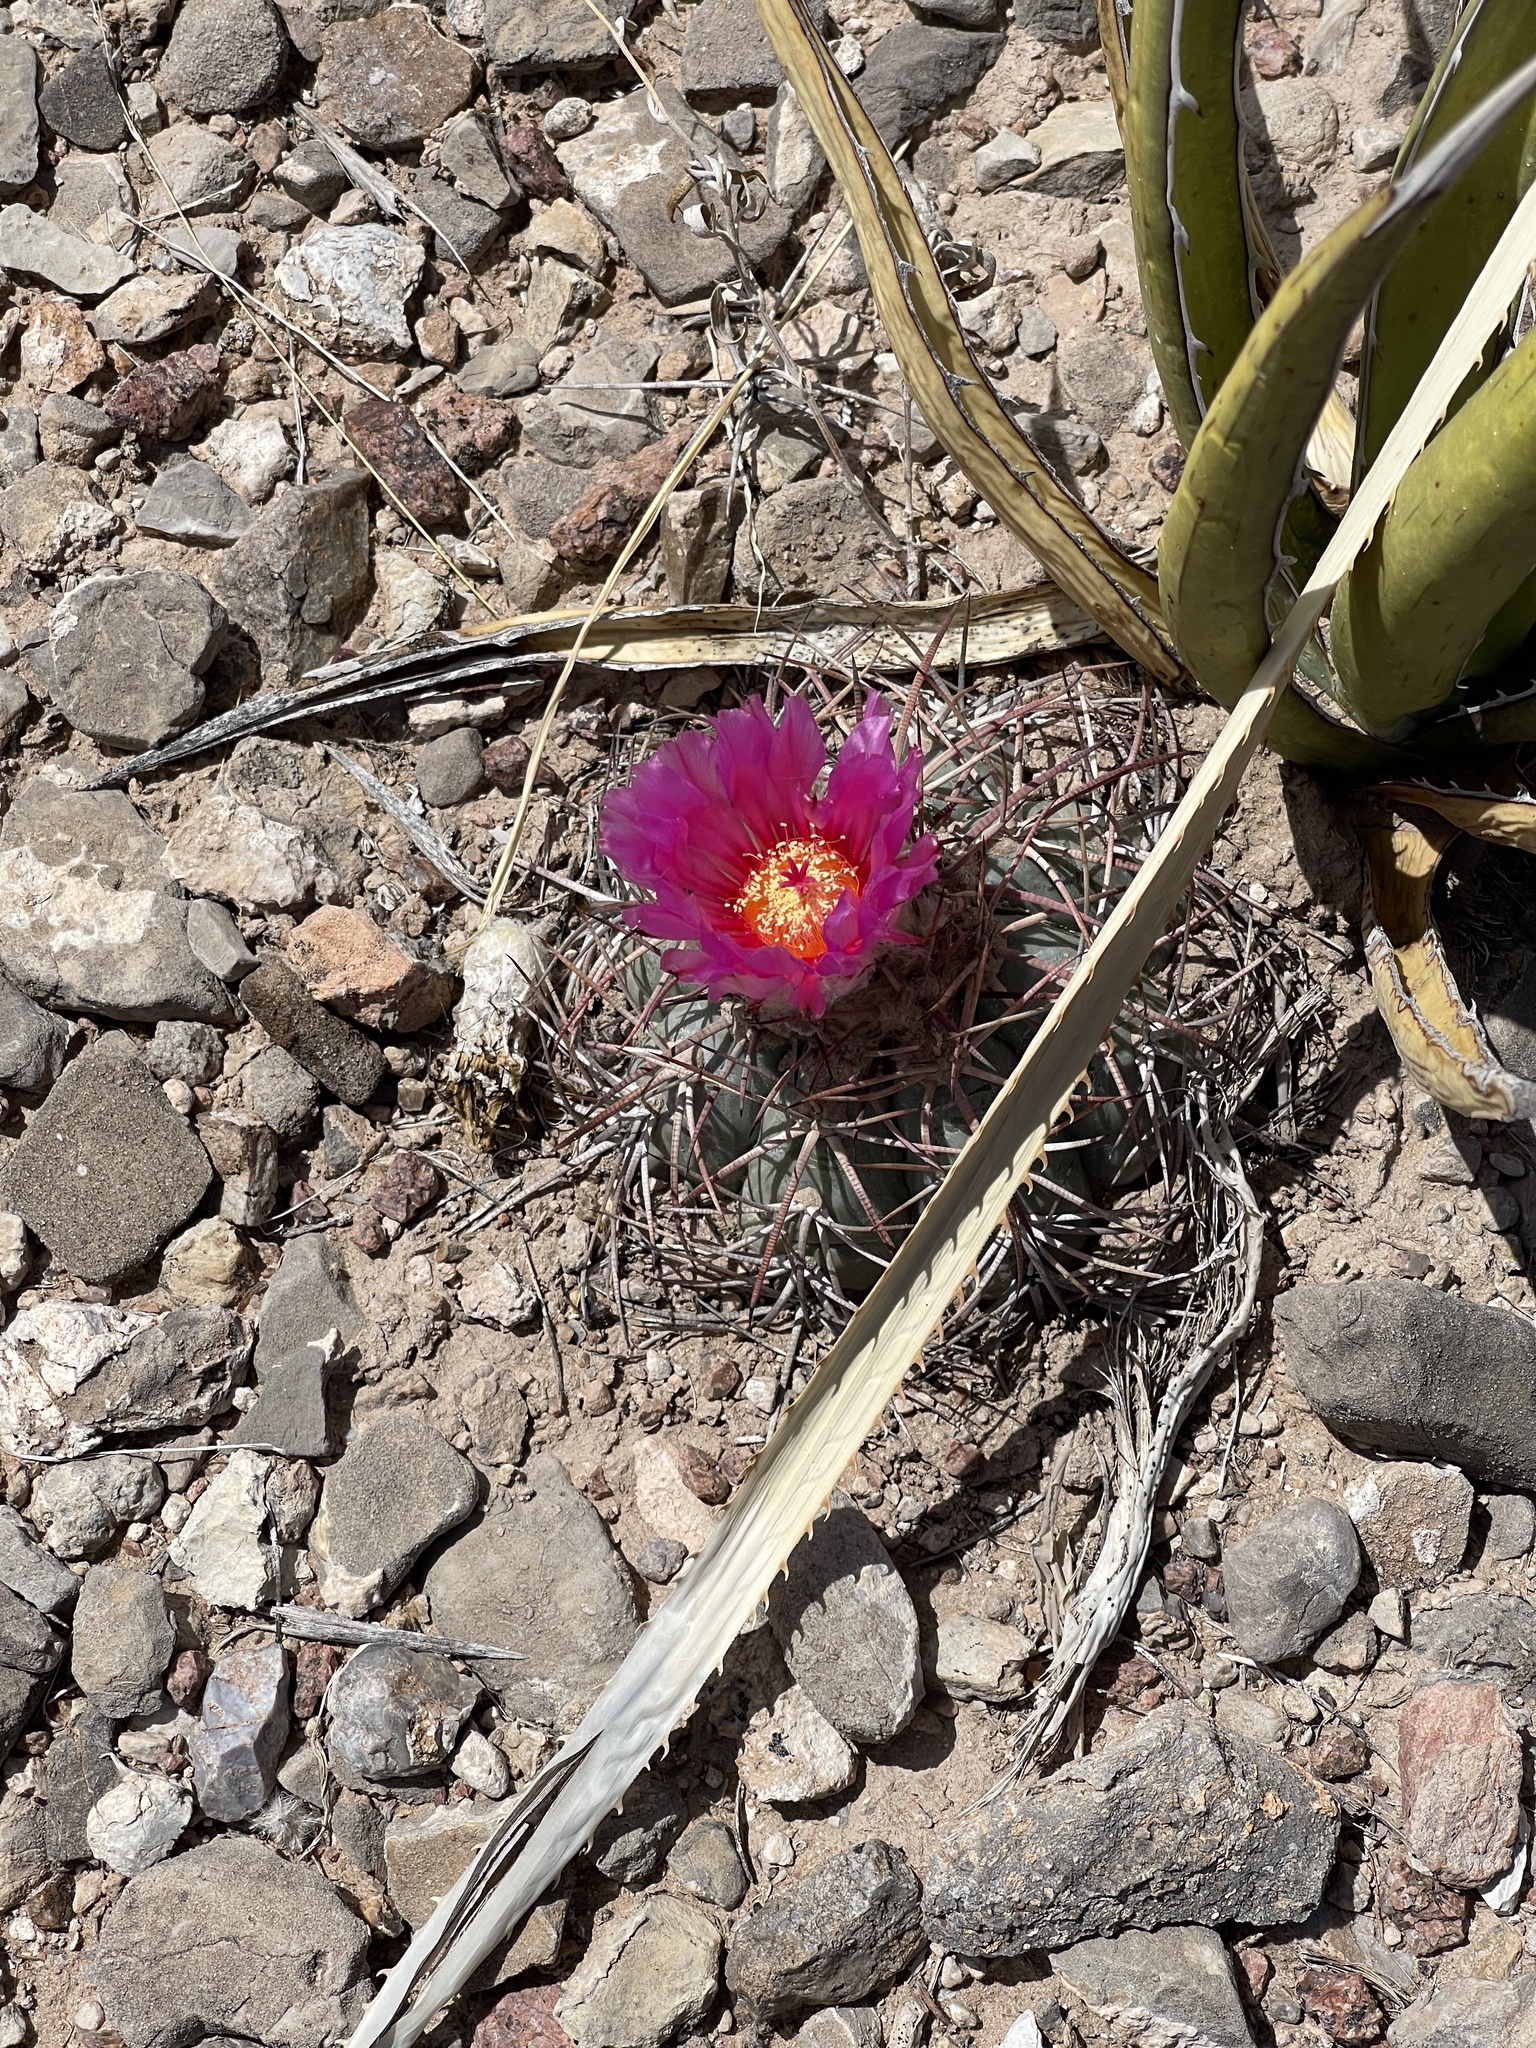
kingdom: Plantae
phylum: Tracheophyta
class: Magnoliopsida
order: Caryophyllales
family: Cactaceae
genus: Echinocactus
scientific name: Echinocactus horizonthalonius
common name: Devilshead
